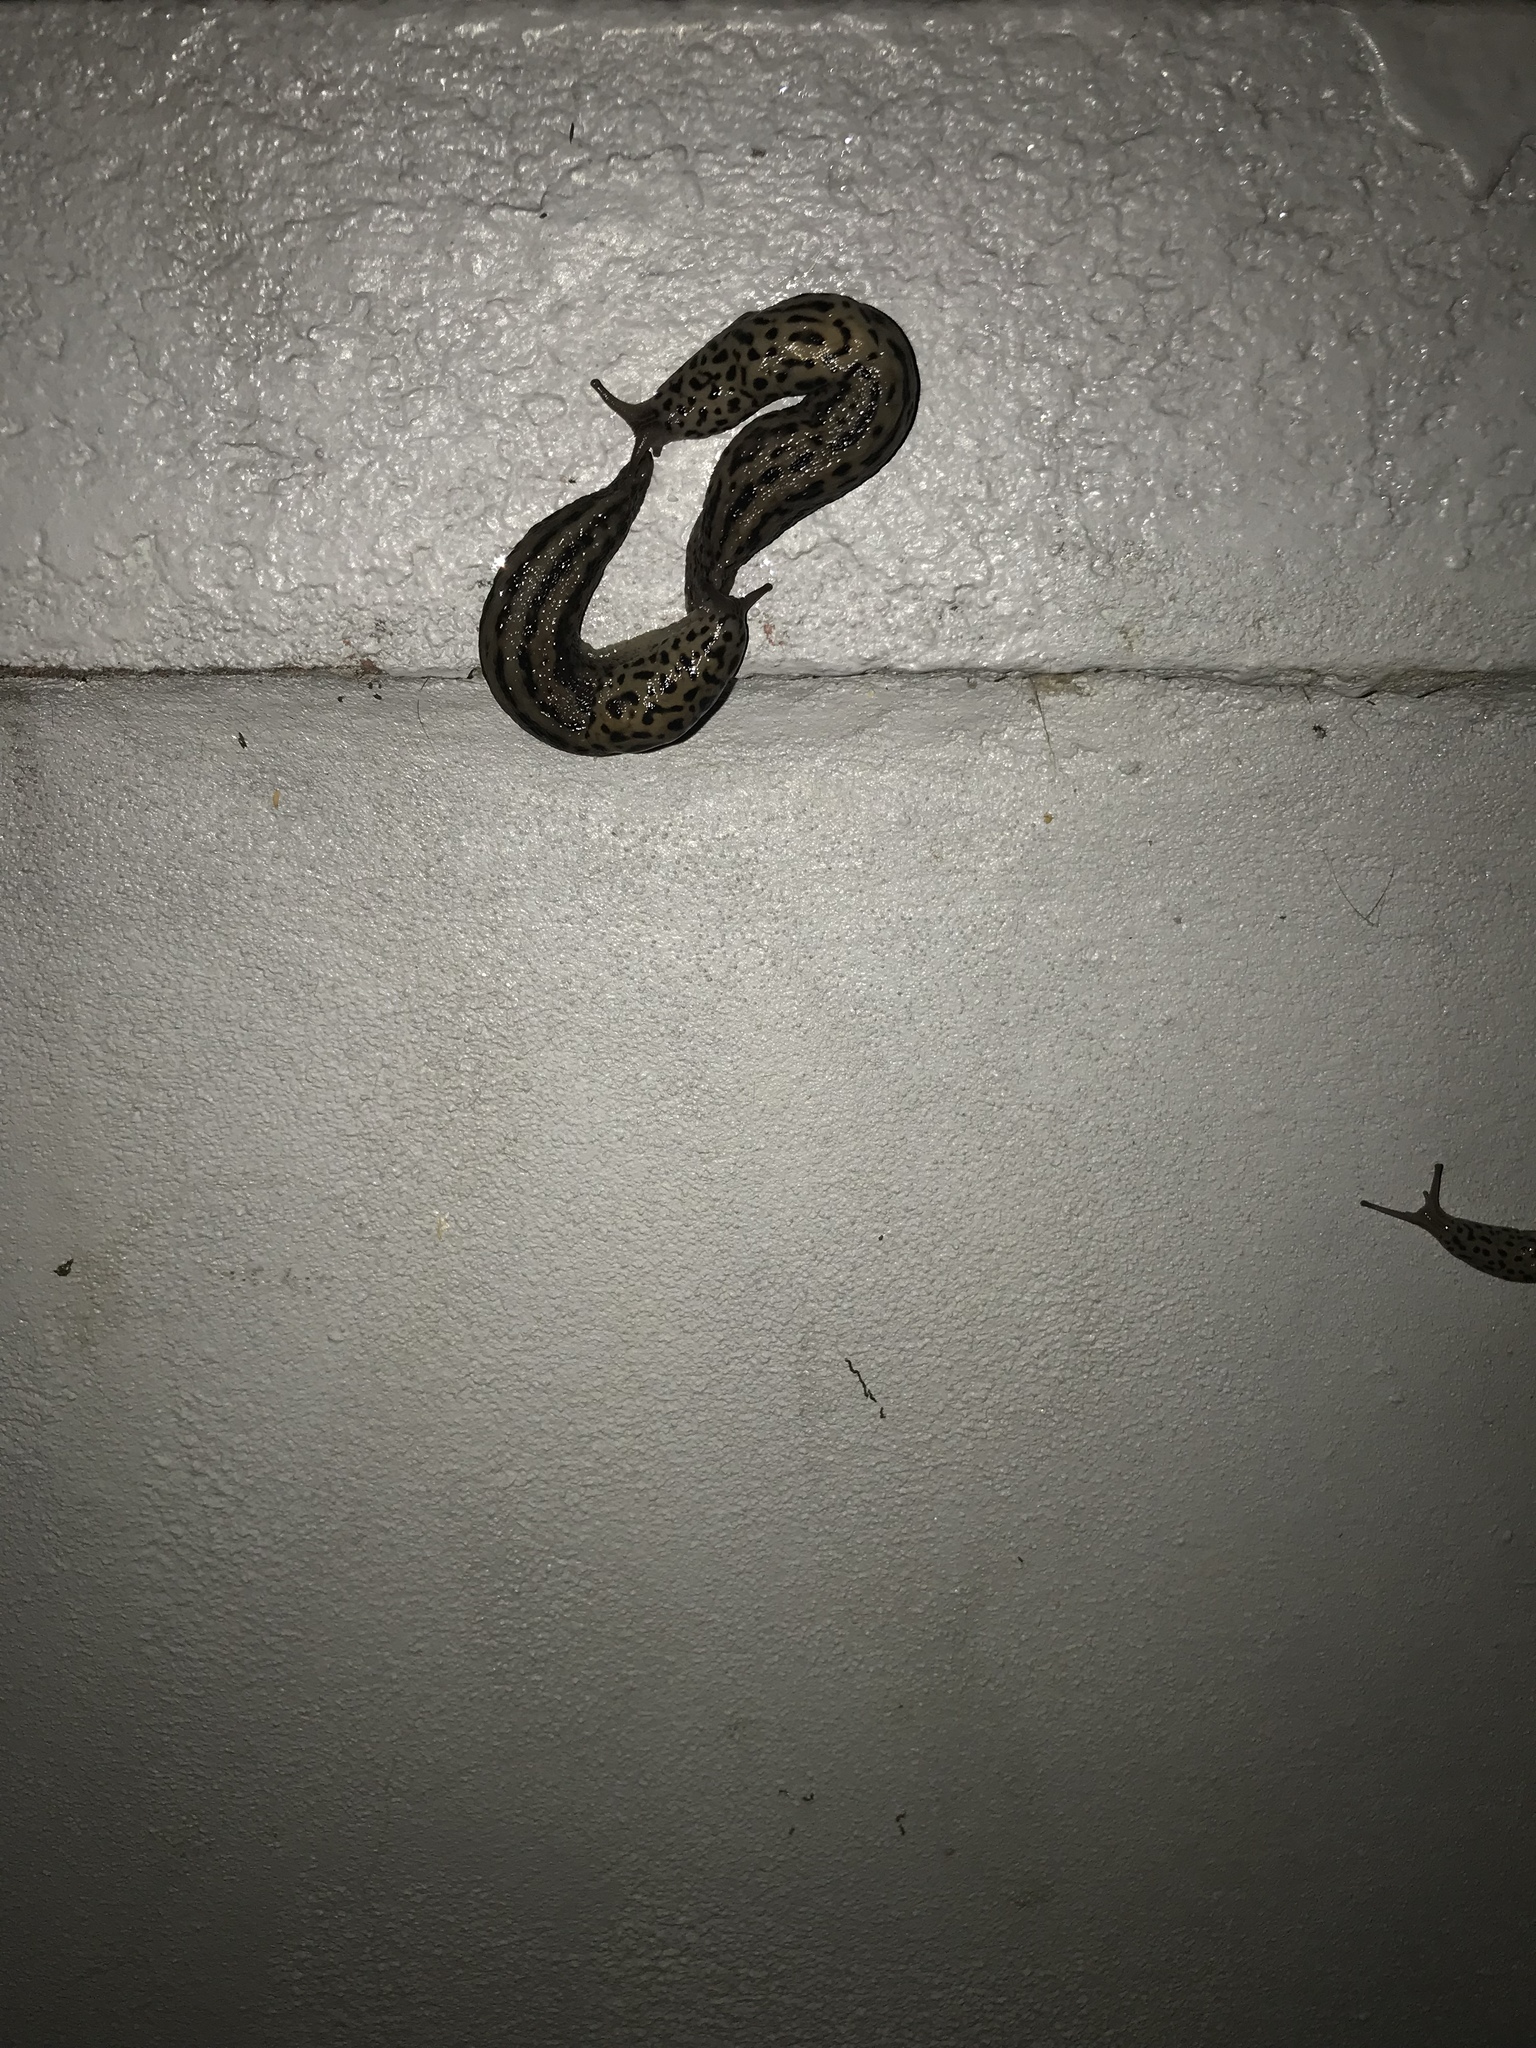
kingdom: Animalia
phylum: Mollusca
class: Gastropoda
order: Stylommatophora
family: Limacidae
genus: Limax
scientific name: Limax maximus
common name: Great grey slug
